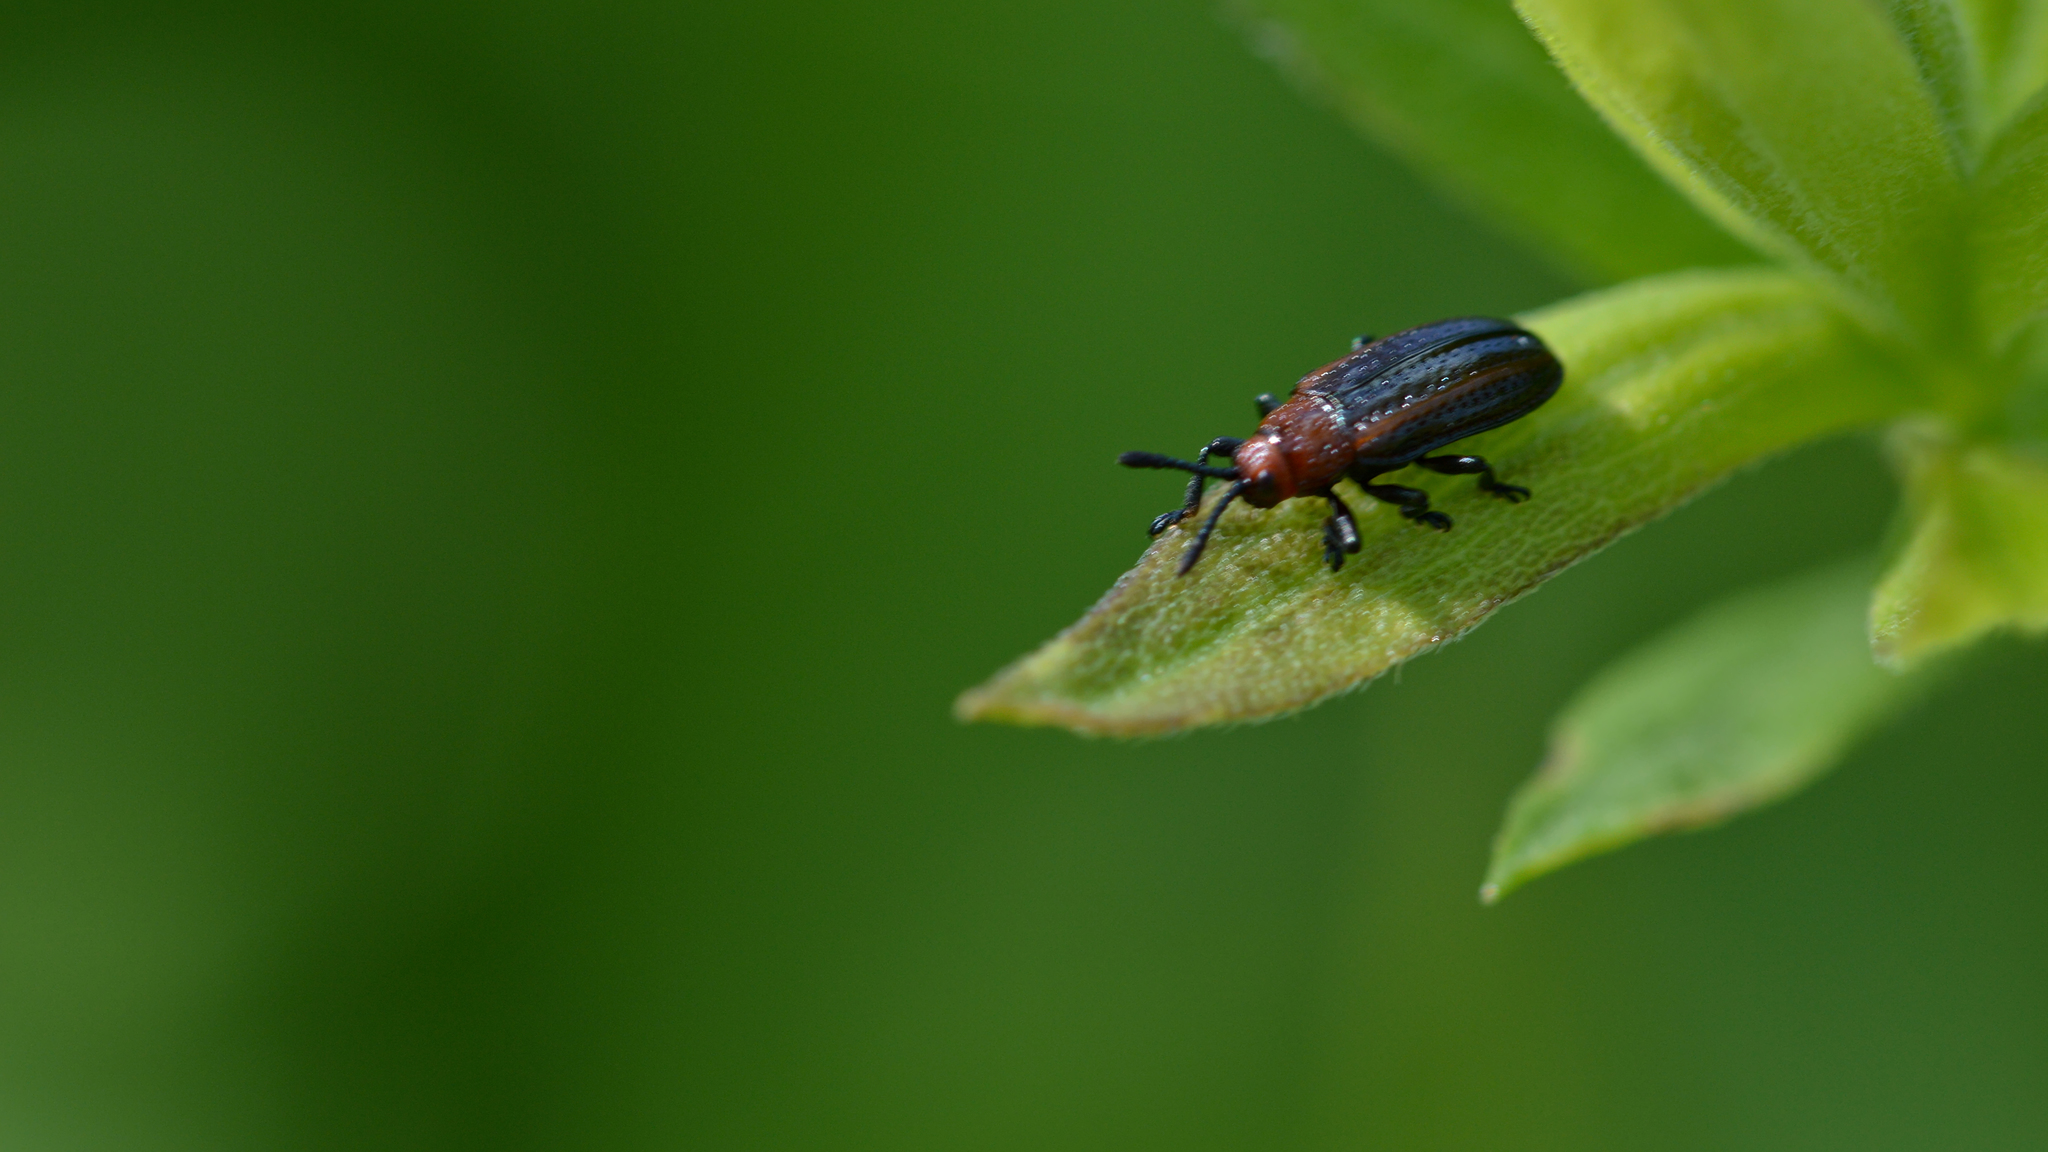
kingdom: Animalia
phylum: Arthropoda
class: Insecta
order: Coleoptera
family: Chrysomelidae
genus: Microrhopala
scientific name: Microrhopala vittata
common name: Goldenrod leaf miner beetle
